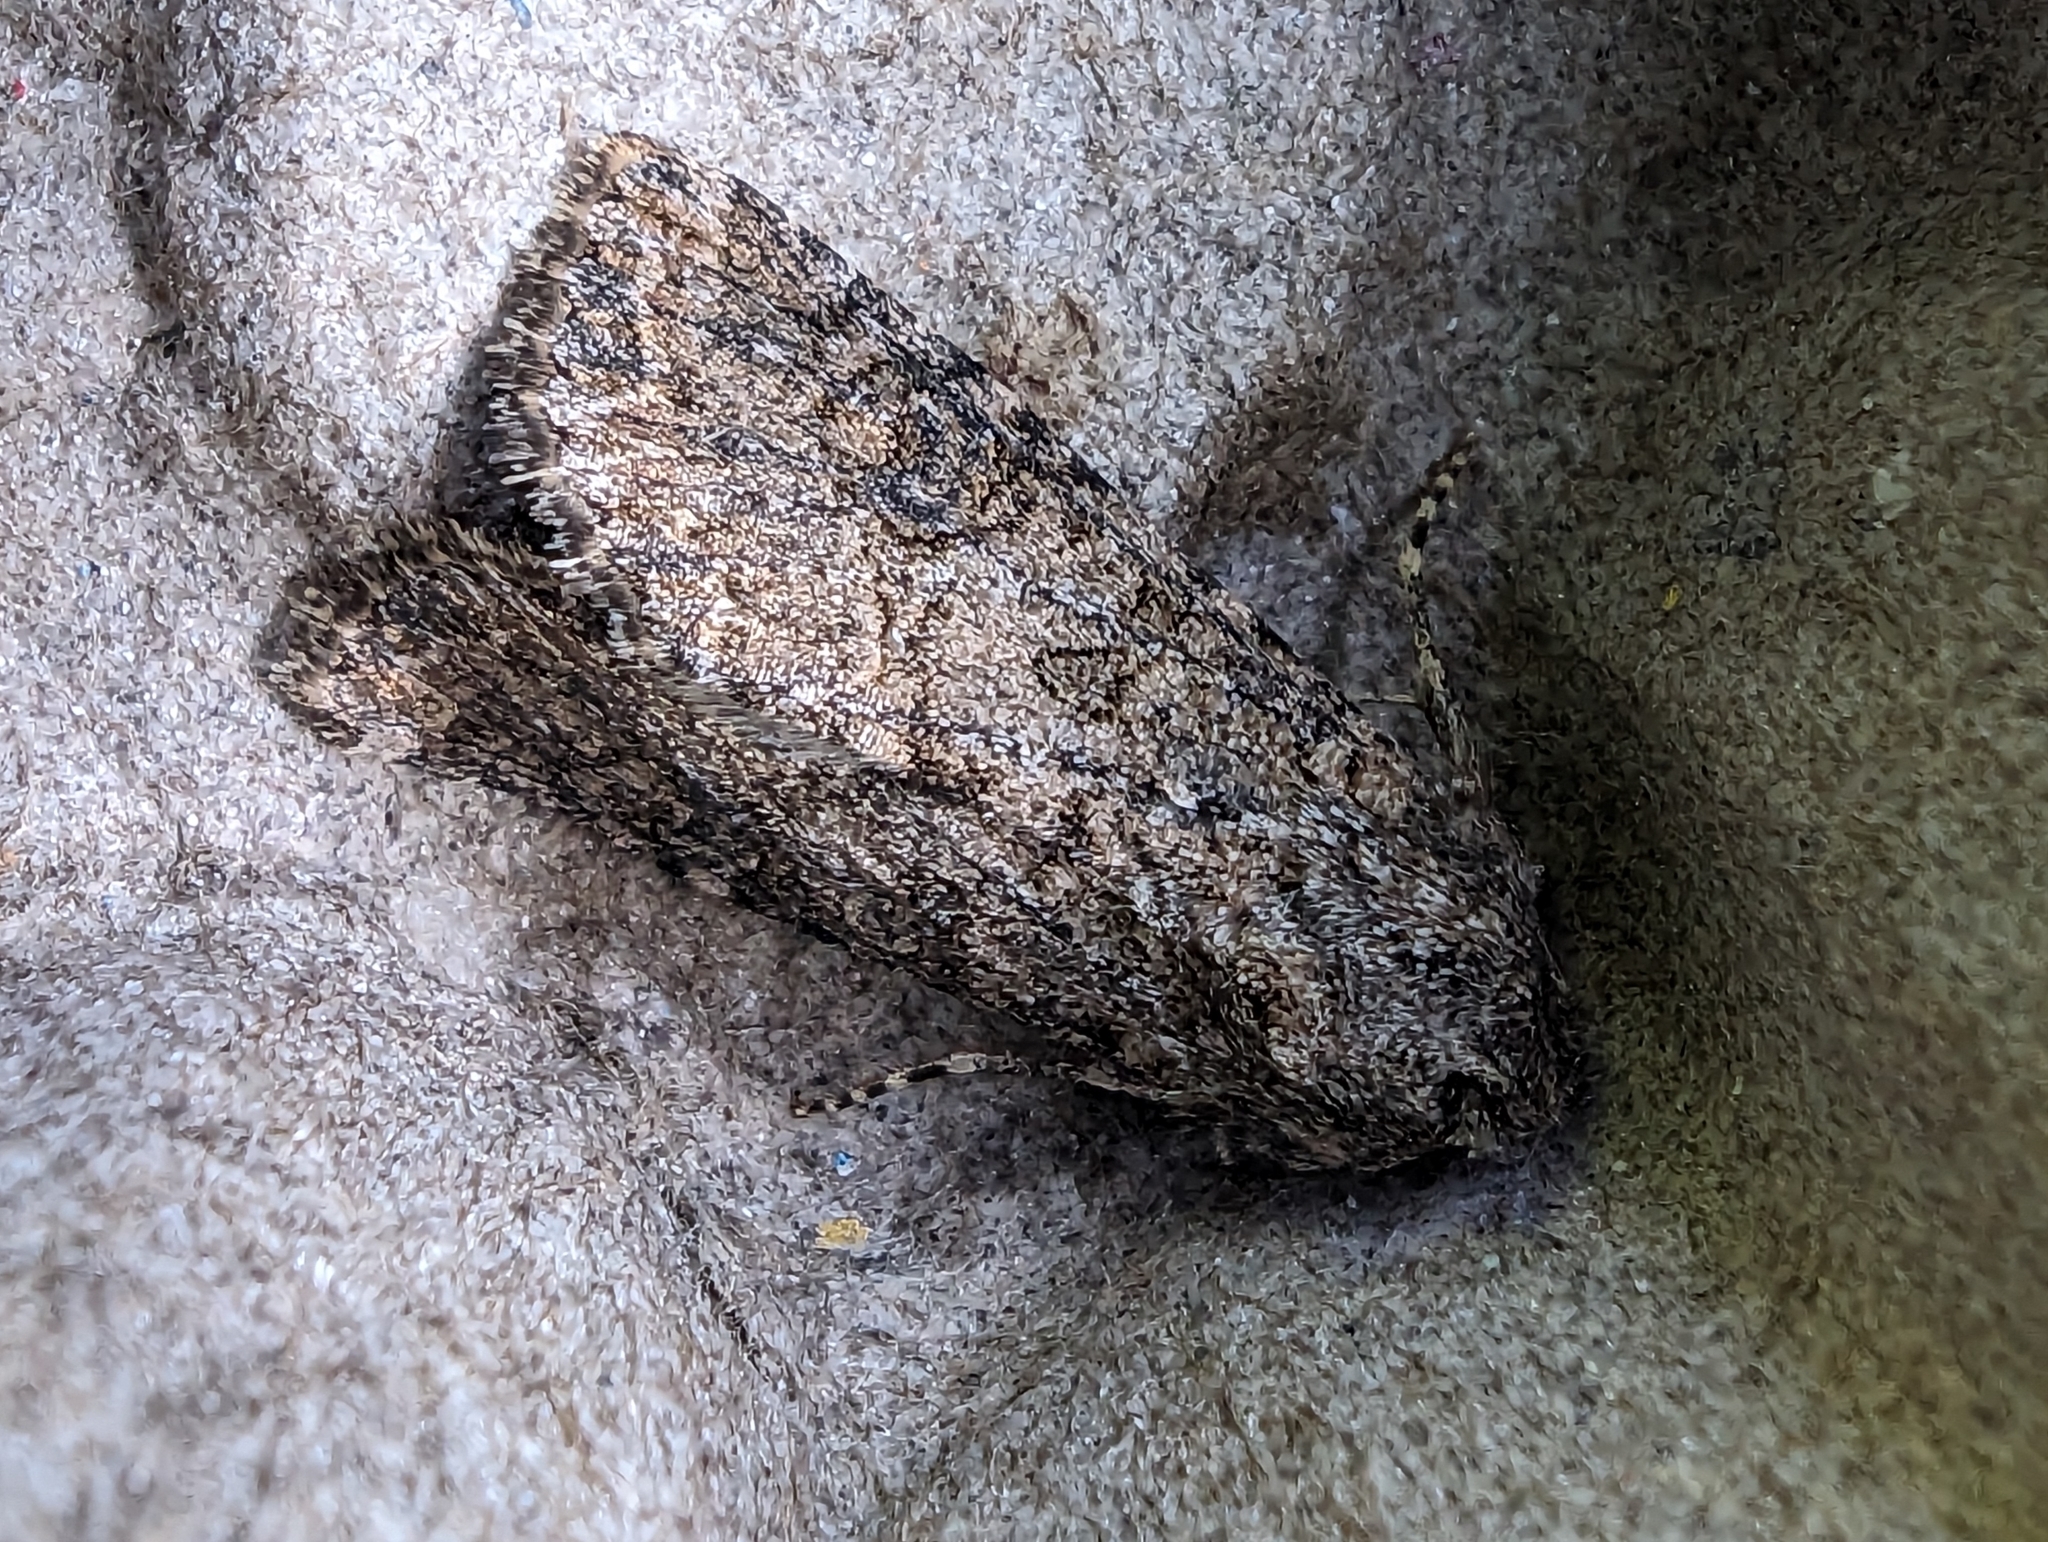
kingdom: Animalia
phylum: Arthropoda
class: Insecta
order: Lepidoptera
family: Noctuidae
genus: Anarta
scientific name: Anarta trifolii
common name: Clover cutworm moth
